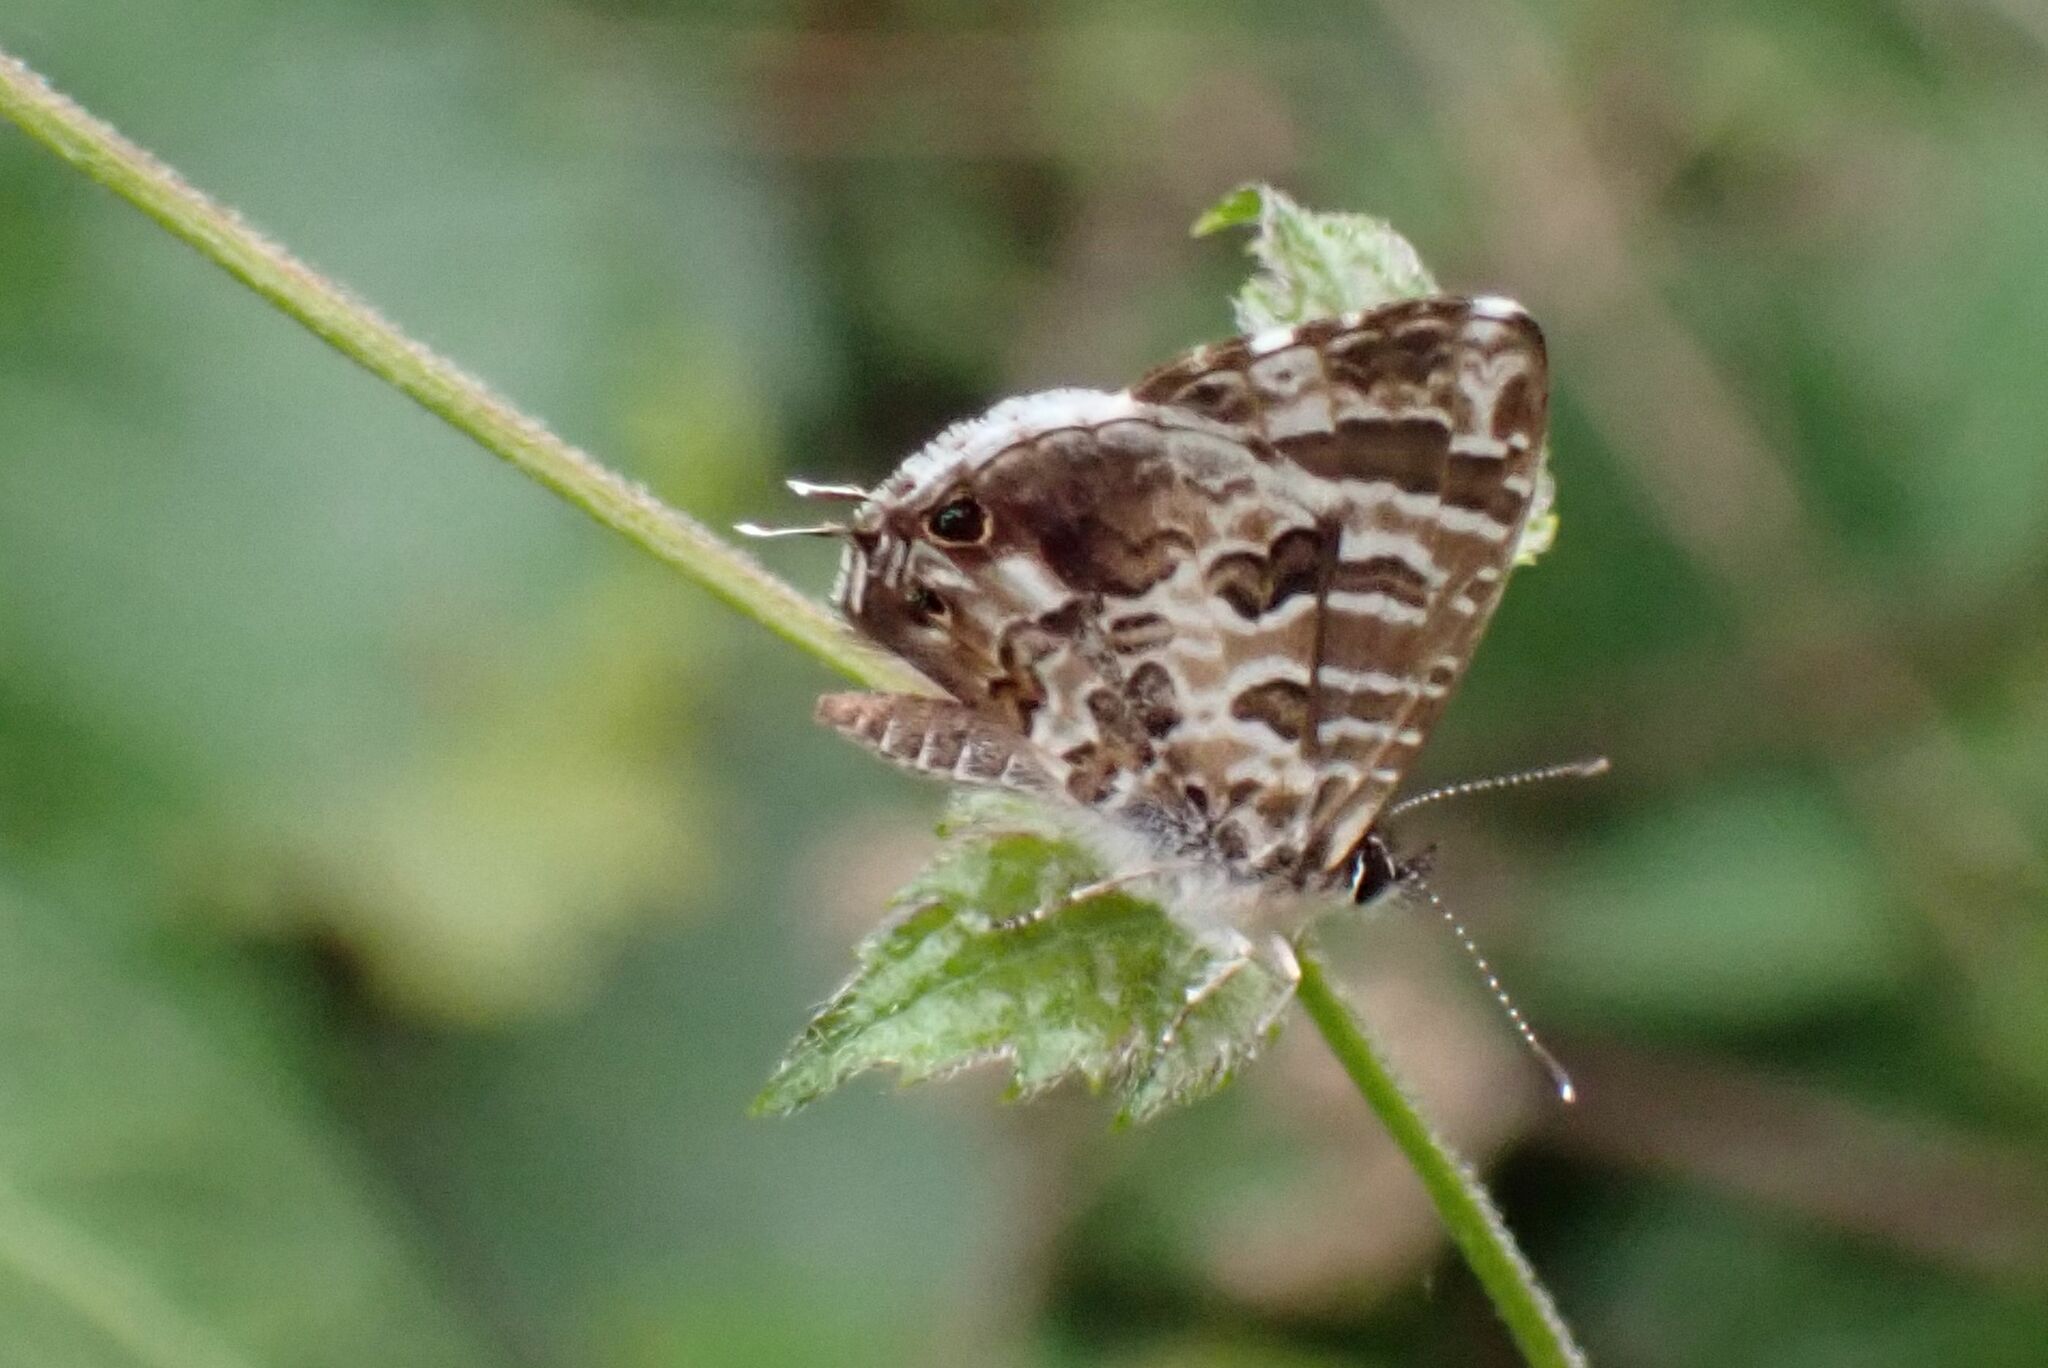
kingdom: Animalia
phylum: Arthropoda
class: Insecta
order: Lepidoptera
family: Lycaenidae
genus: Cacyreus
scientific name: Cacyreus lingeus
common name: Bush bronze
